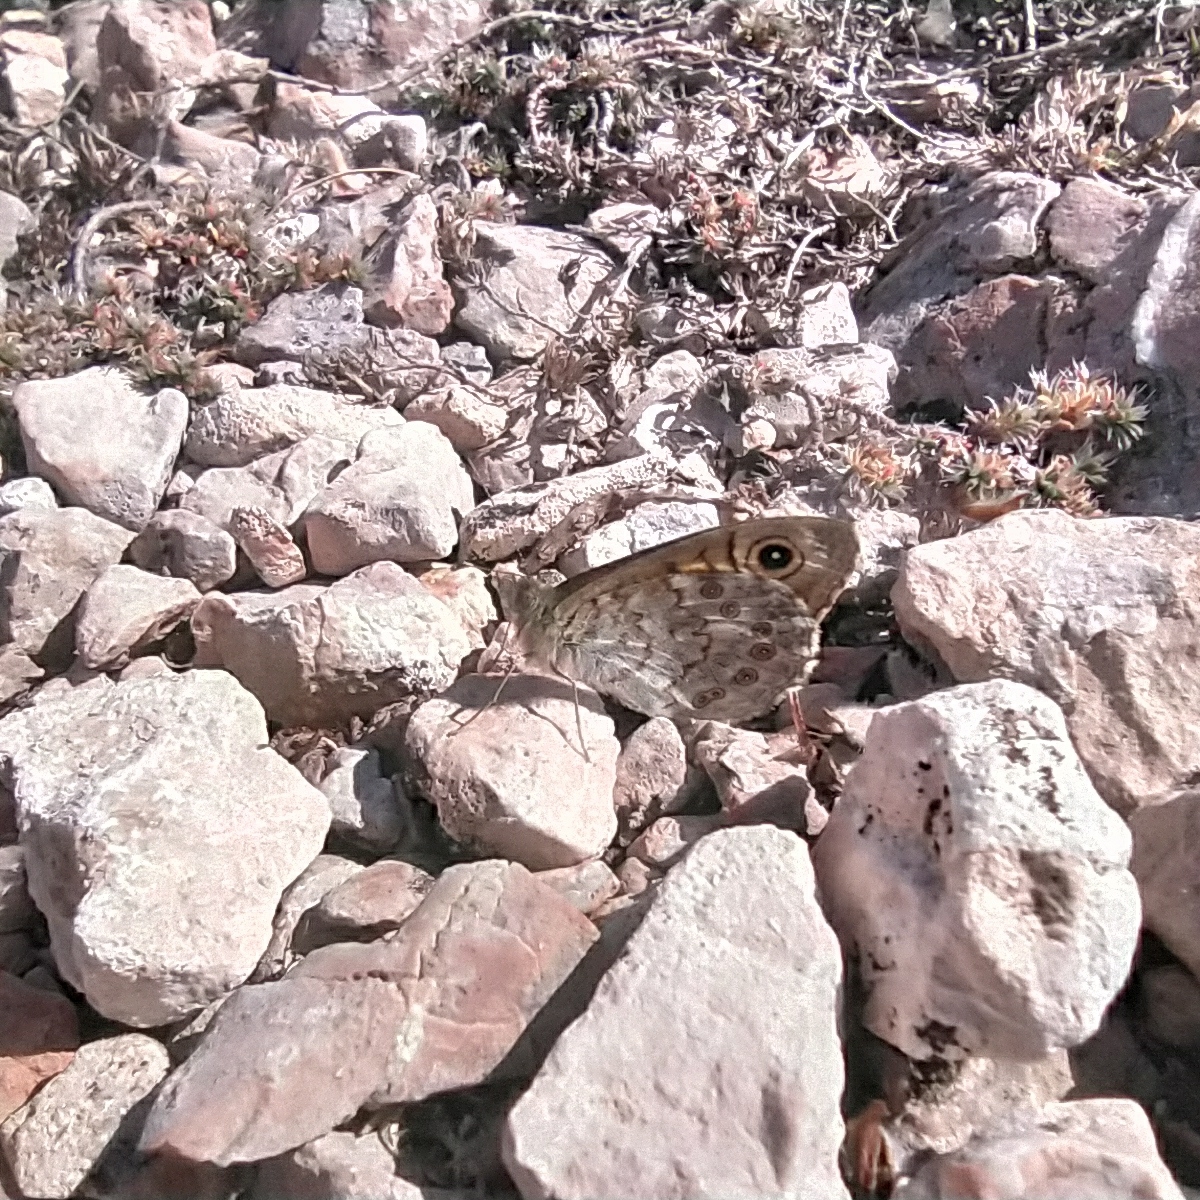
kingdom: Animalia
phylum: Arthropoda
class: Insecta
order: Lepidoptera
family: Nymphalidae
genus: Pararge
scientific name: Pararge Lasiommata megera
